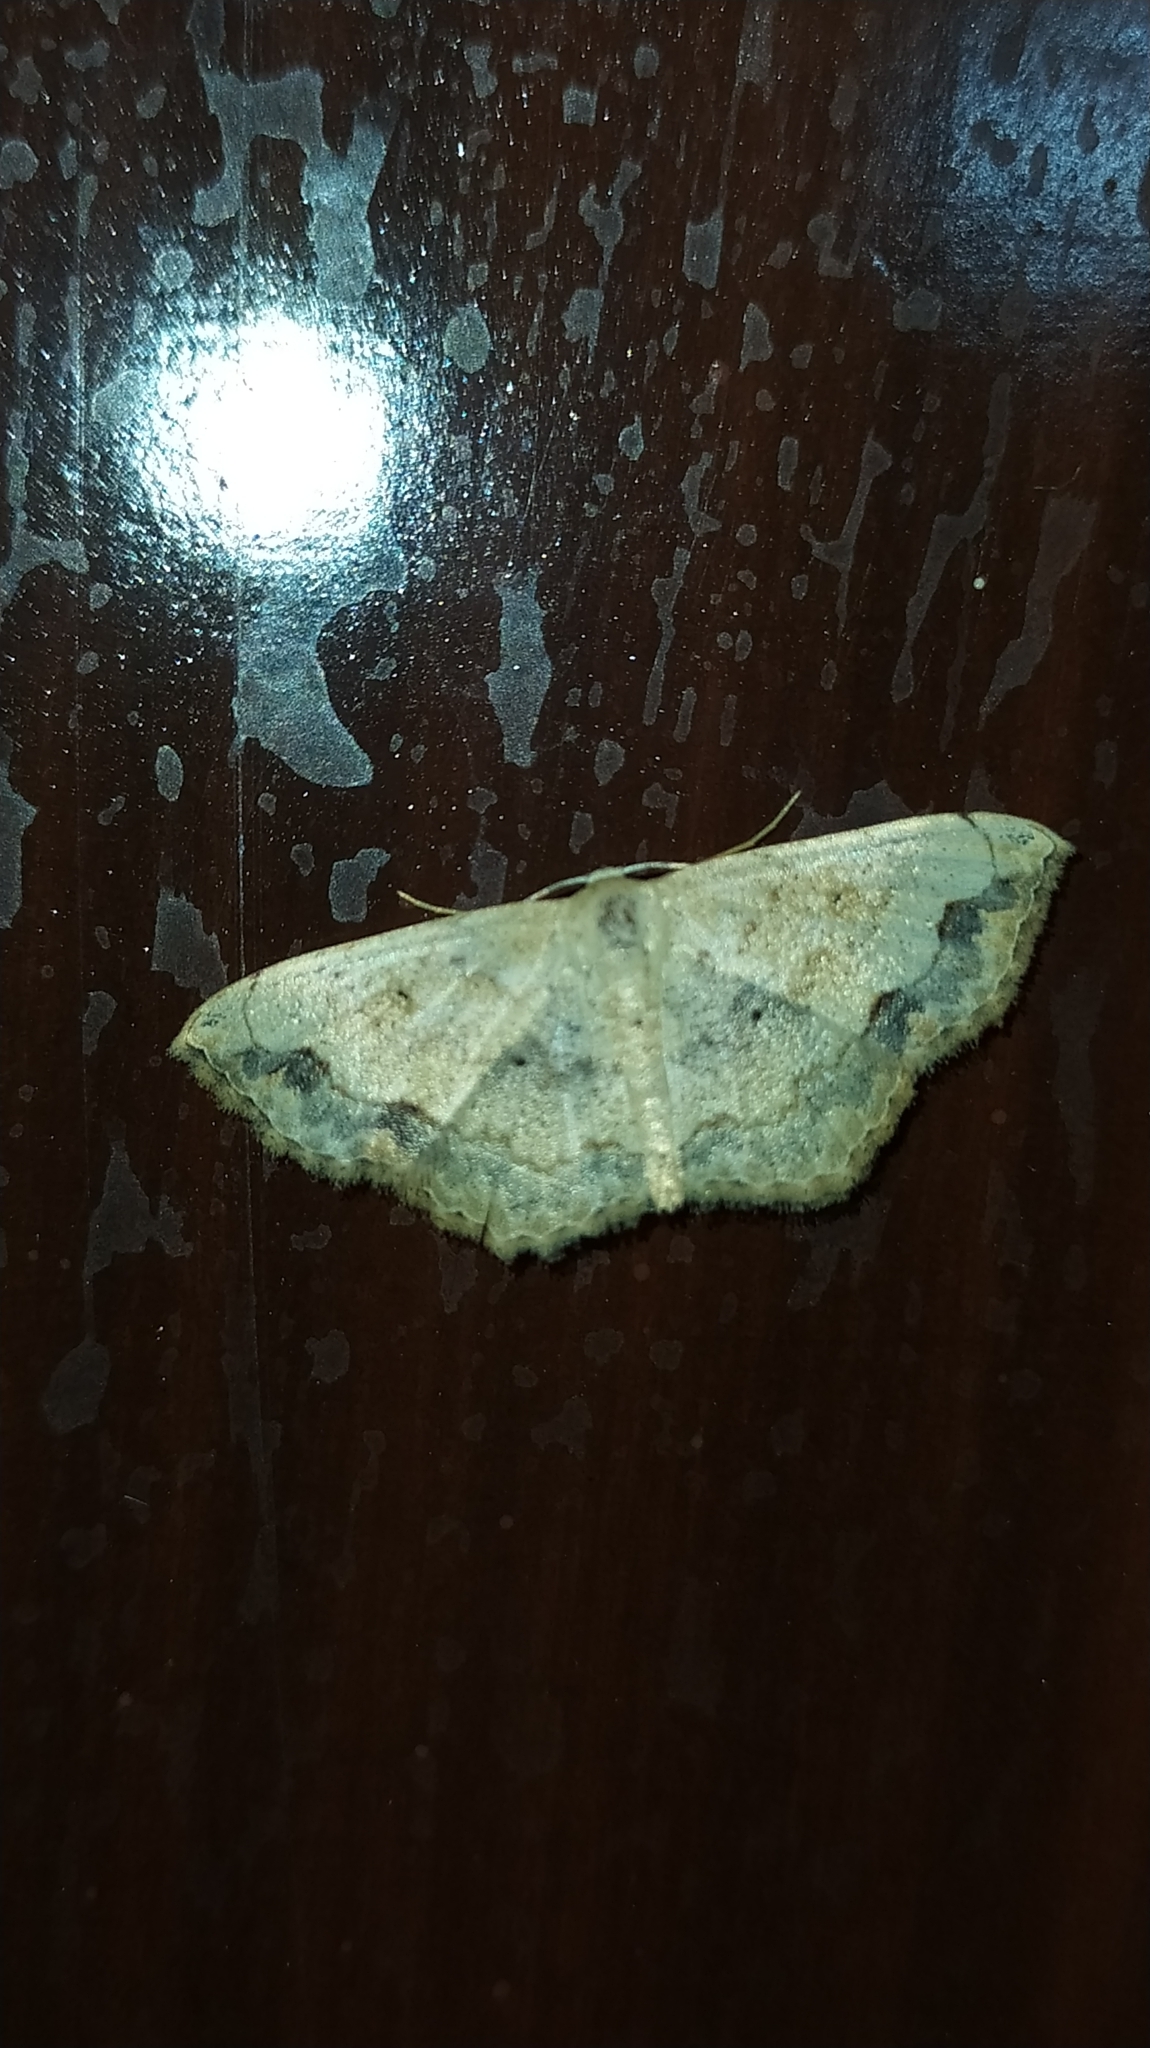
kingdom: Animalia
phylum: Arthropoda
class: Insecta
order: Lepidoptera
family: Geometridae
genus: Scopula
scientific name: Scopula addictaria
